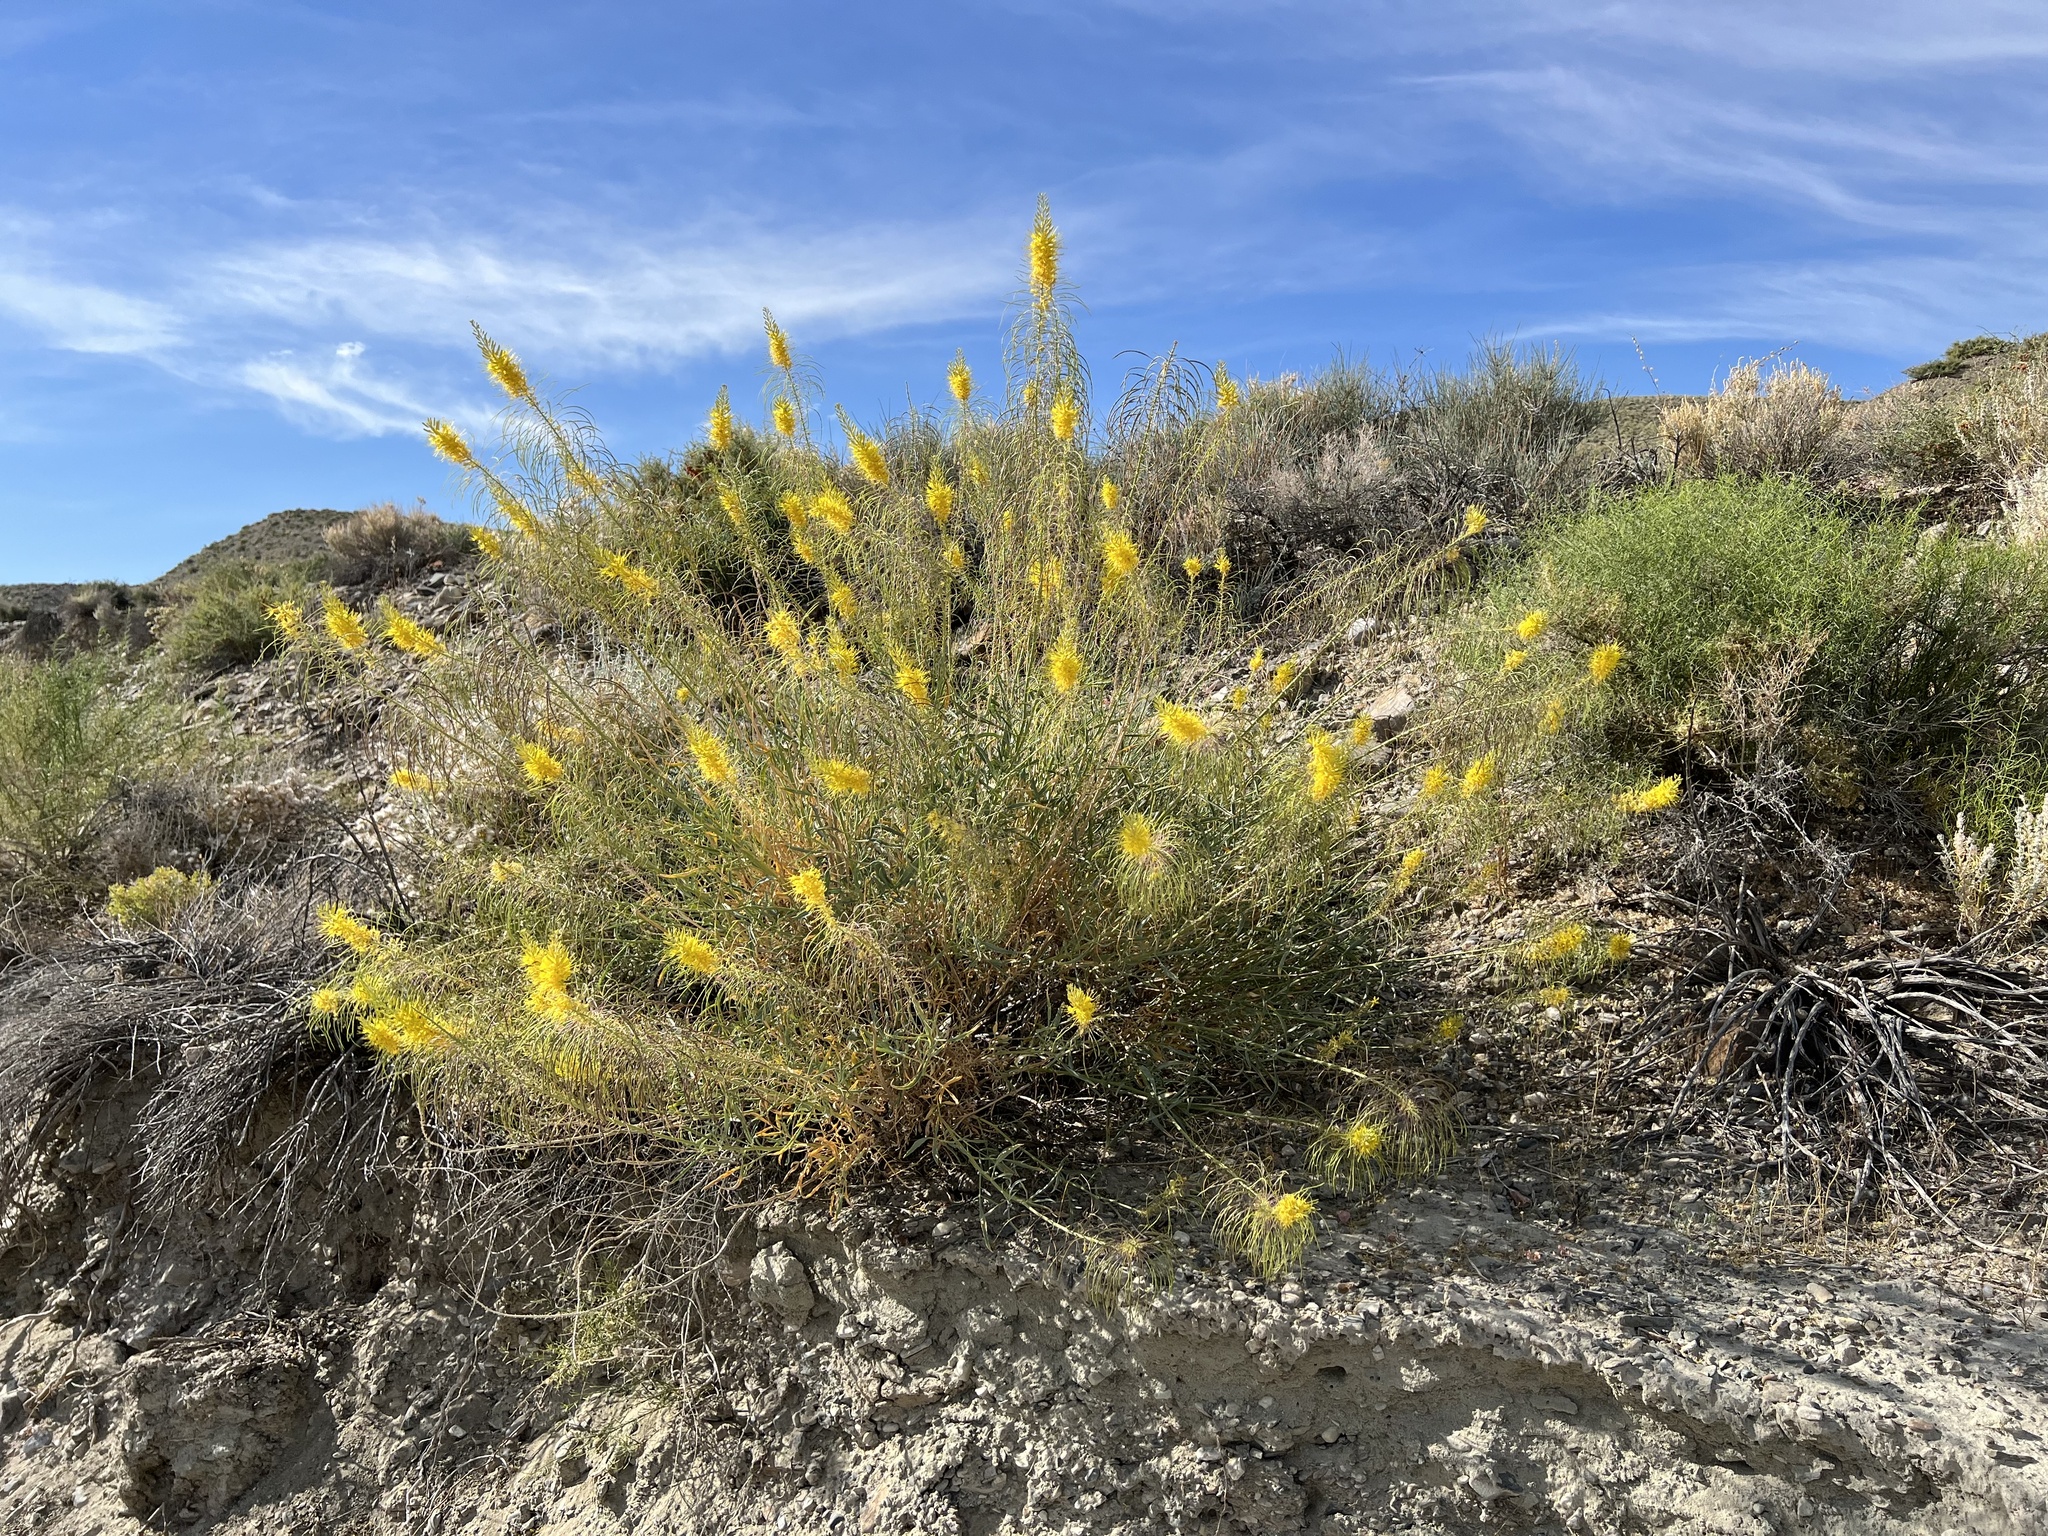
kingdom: Plantae
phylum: Tracheophyta
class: Magnoliopsida
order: Brassicales
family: Brassicaceae
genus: Stanleya
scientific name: Stanleya pinnata
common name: Prince's-plume
